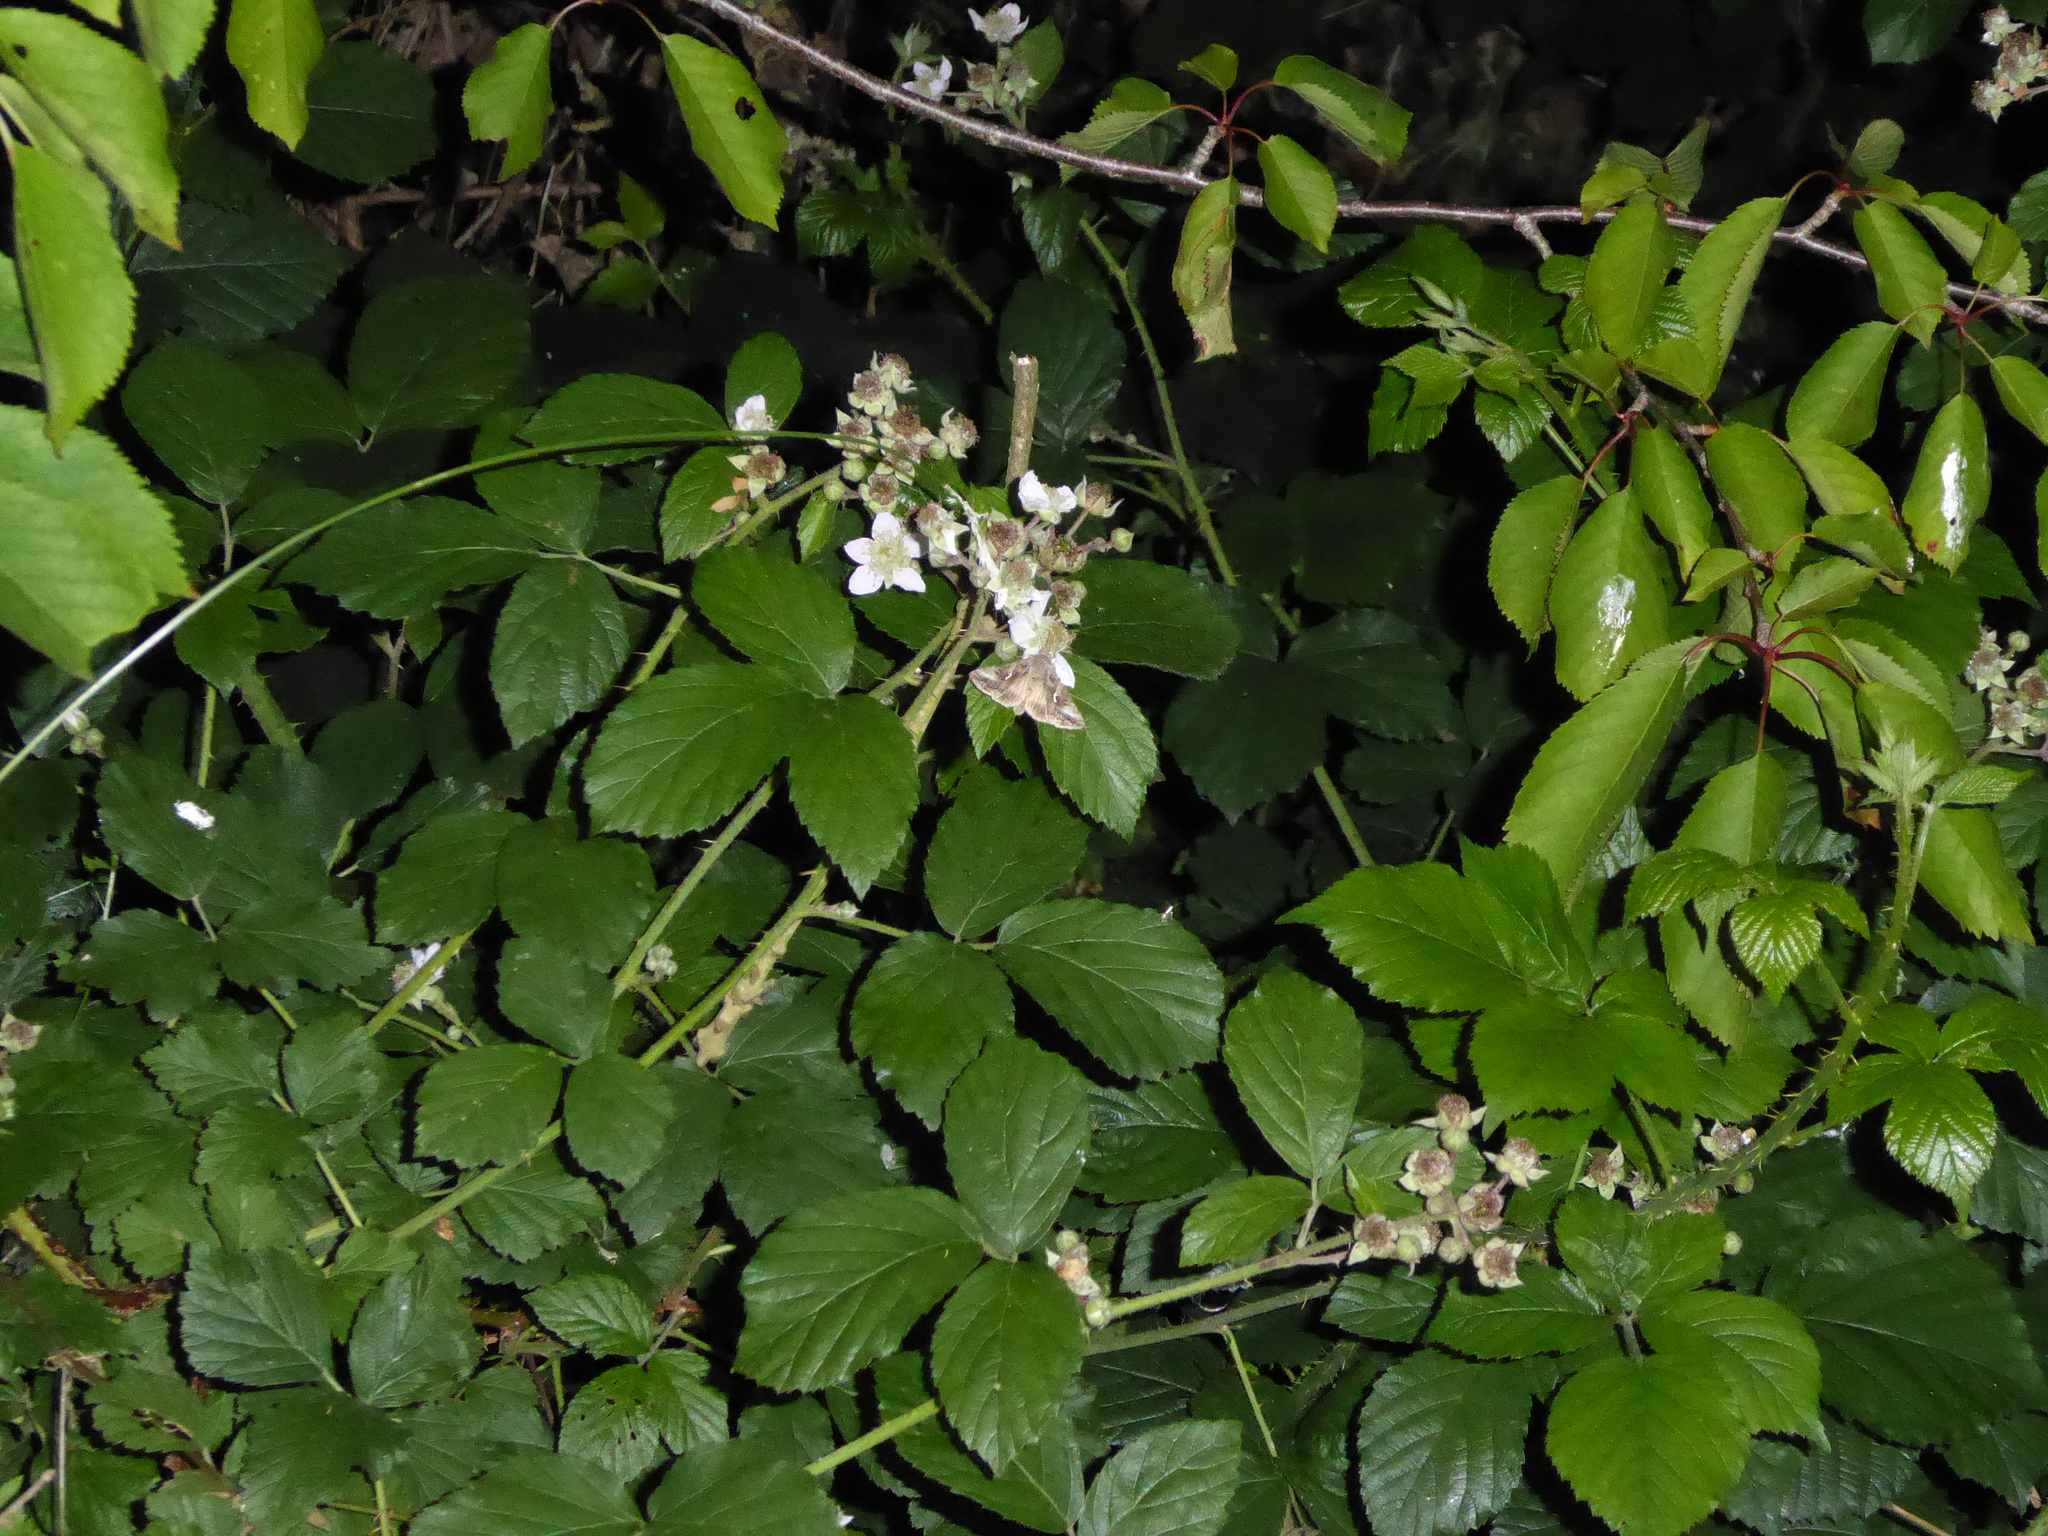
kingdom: Animalia
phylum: Arthropoda
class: Insecta
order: Lepidoptera
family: Noctuidae
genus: Autographa
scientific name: Autographa gamma
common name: Silver y
